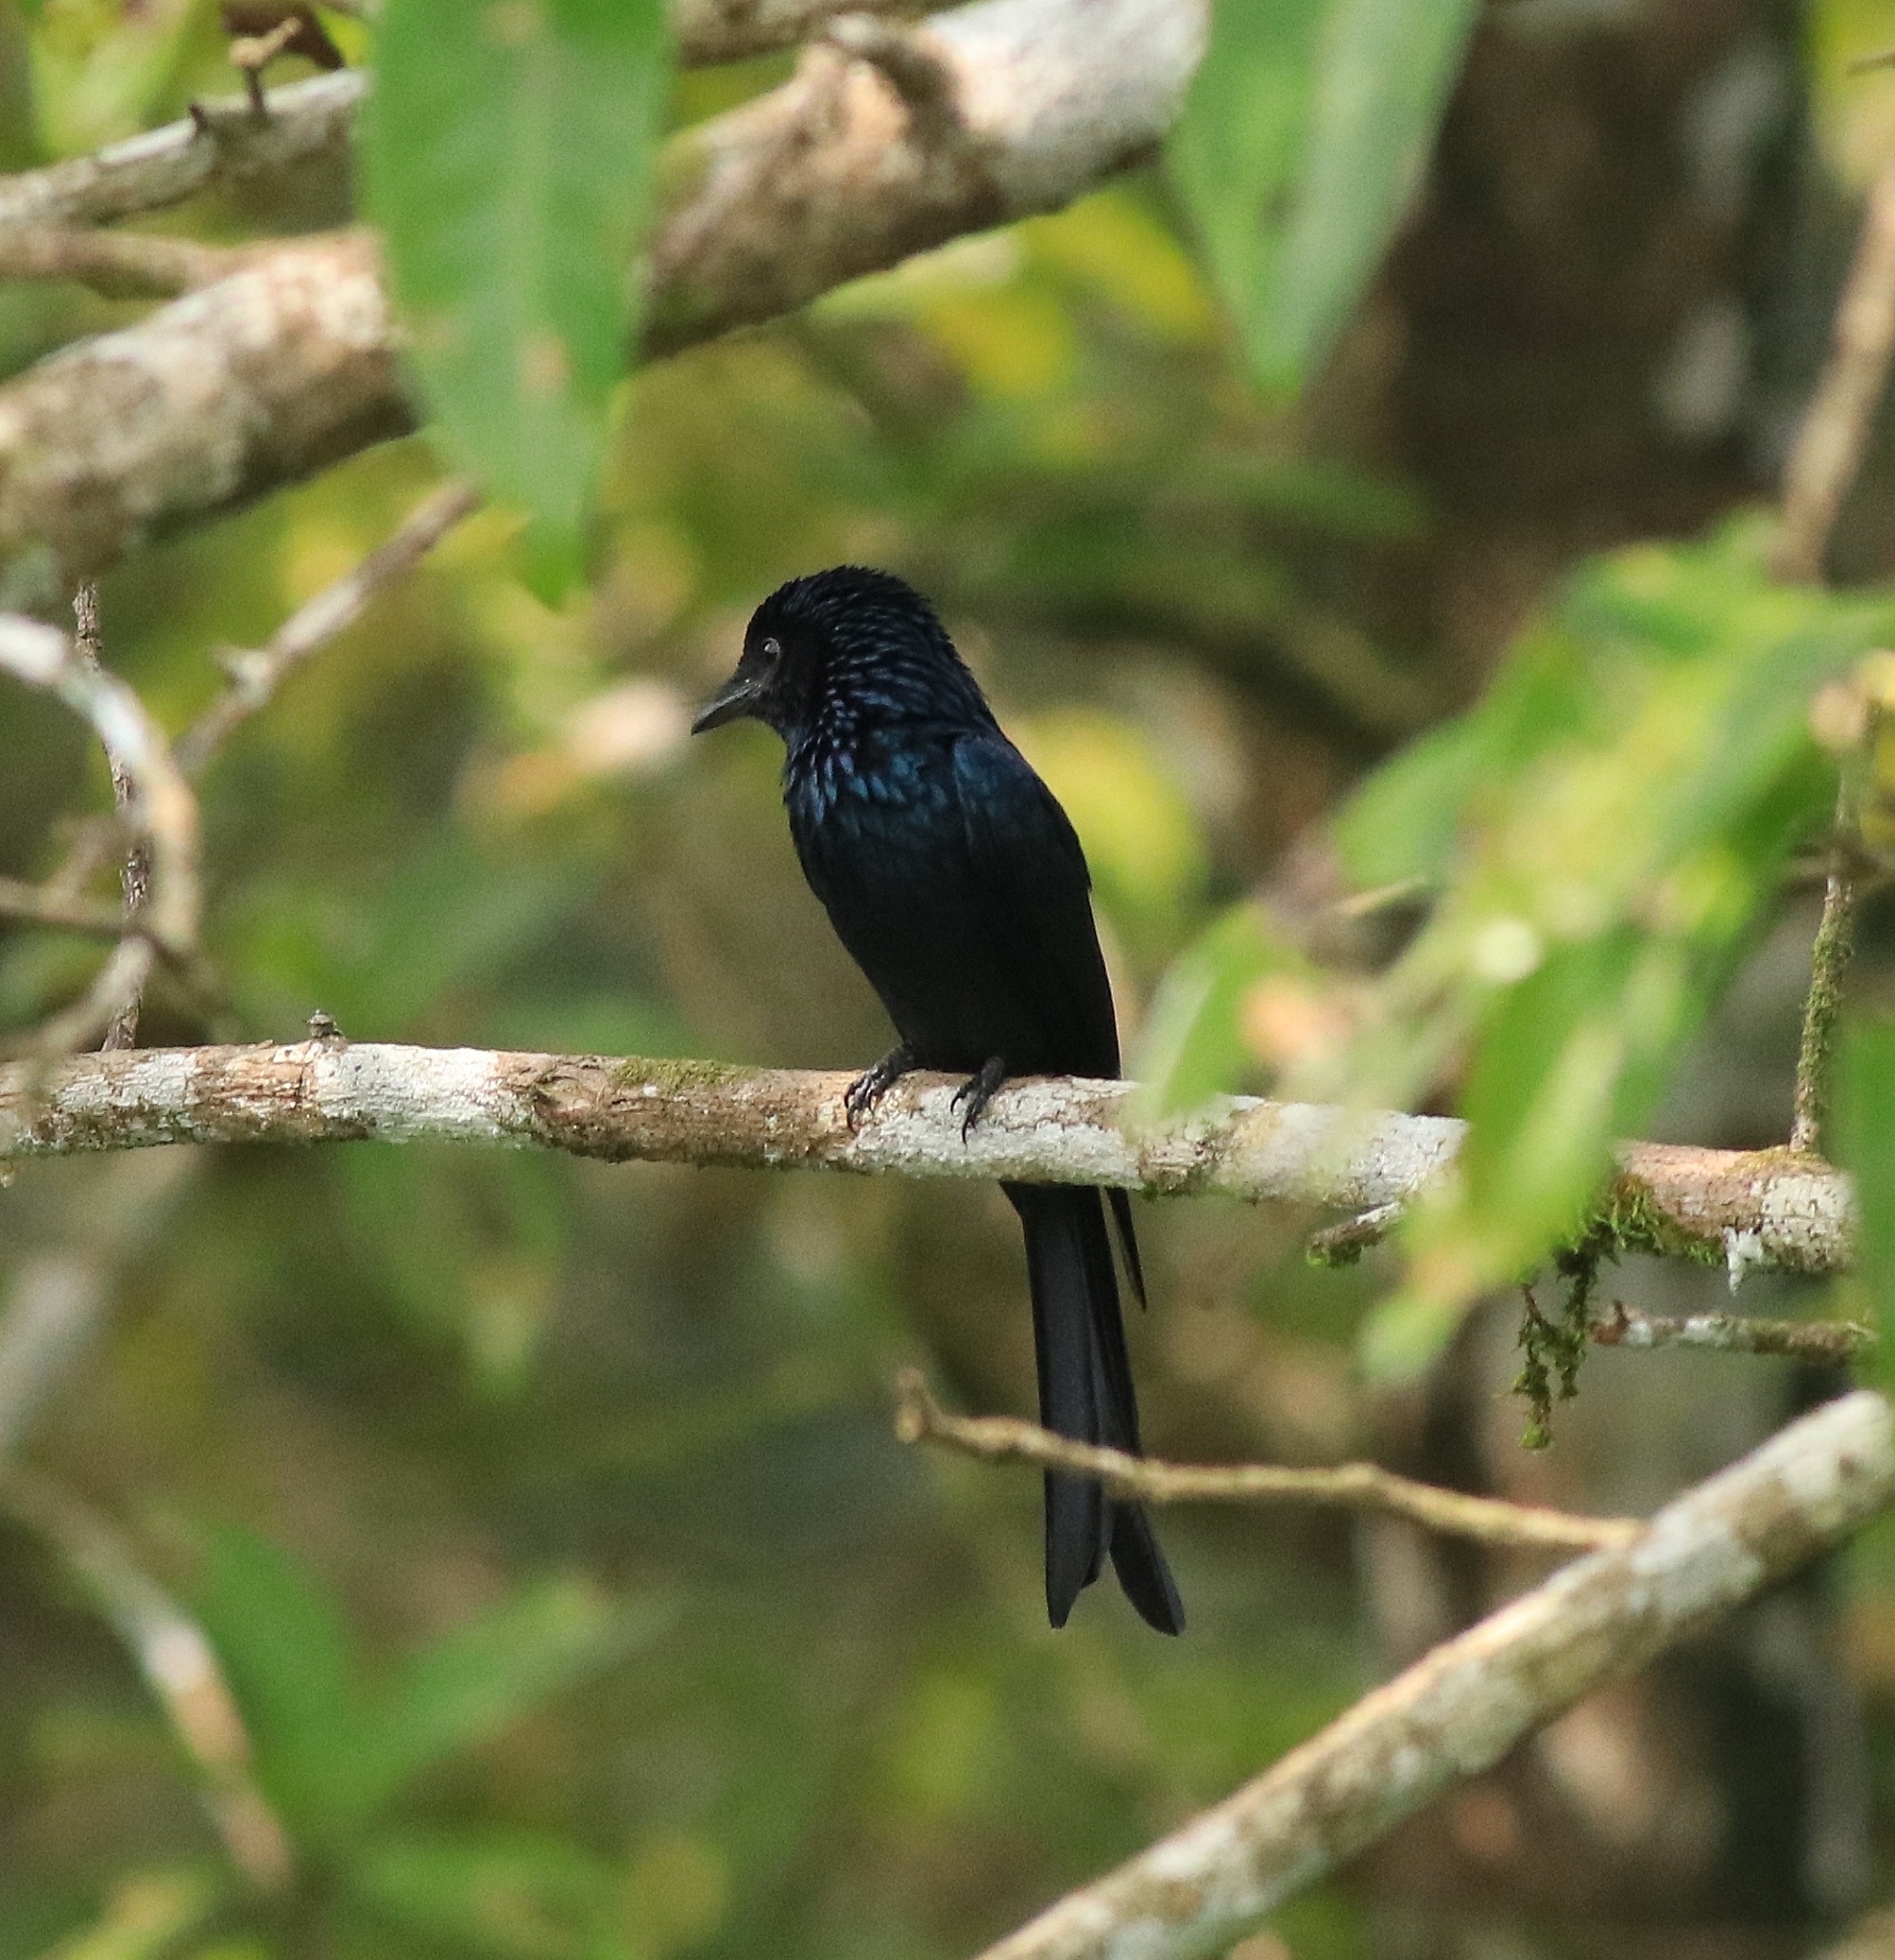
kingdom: Animalia
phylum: Chordata
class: Aves
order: Passeriformes
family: Dicruridae
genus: Dicrurus
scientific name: Dicrurus aeneus
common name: Bronzed drongo
